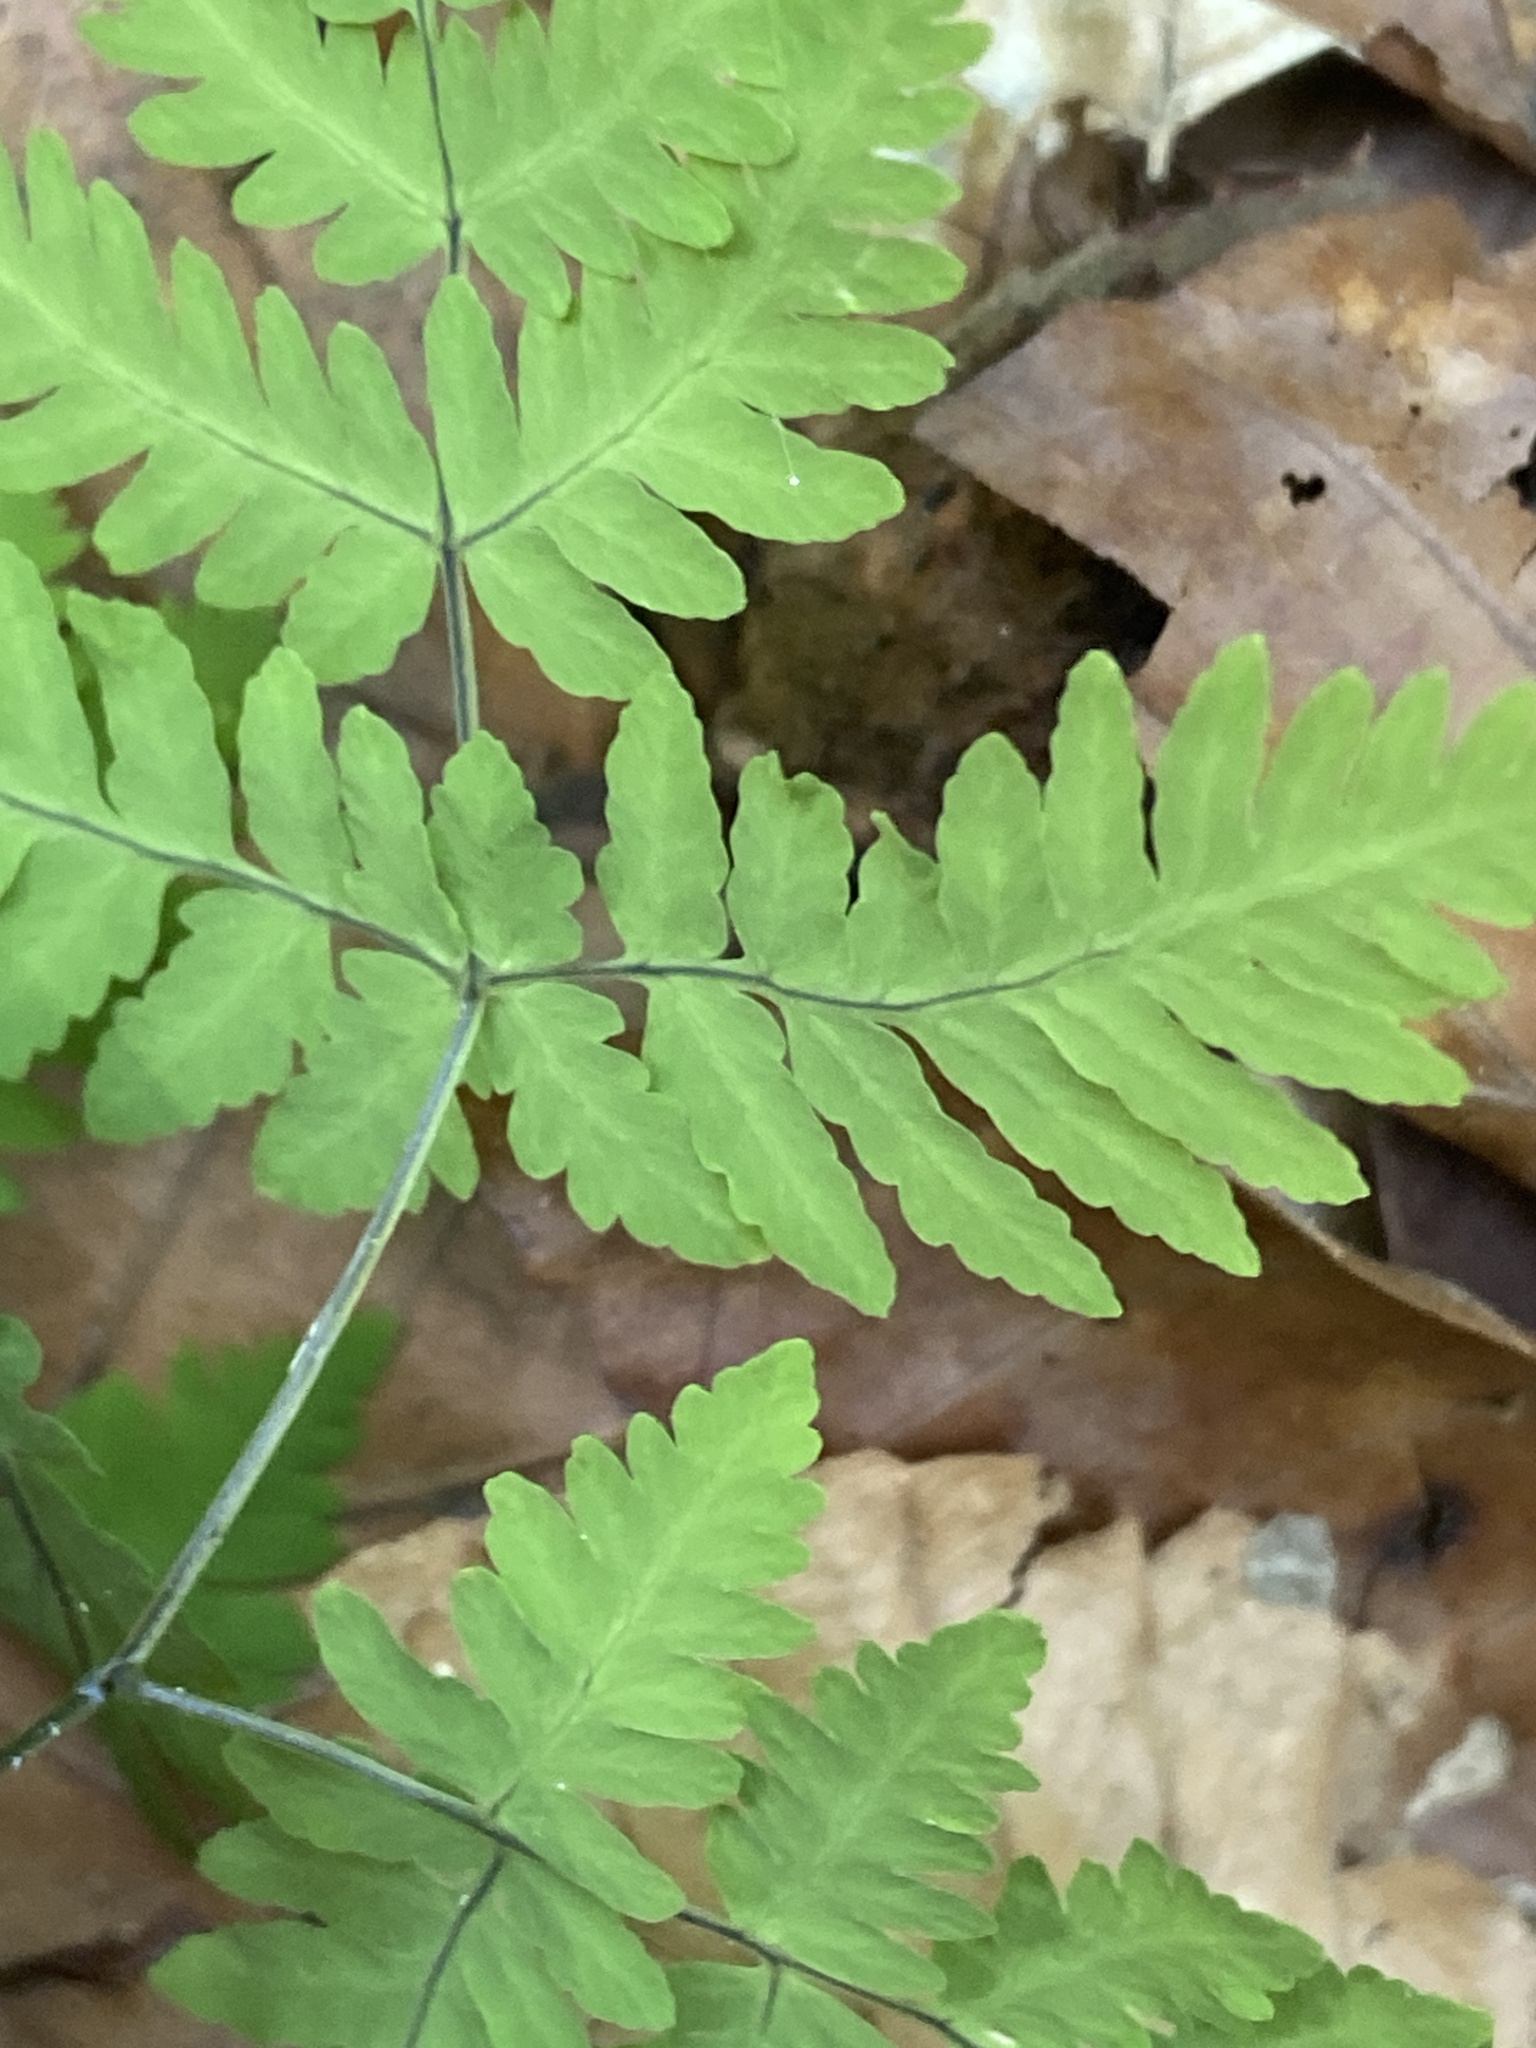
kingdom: Plantae
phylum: Tracheophyta
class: Polypodiopsida
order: Polypodiales
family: Cystopteridaceae
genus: Gymnocarpium
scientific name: Gymnocarpium dryopteris
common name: Oak fern
